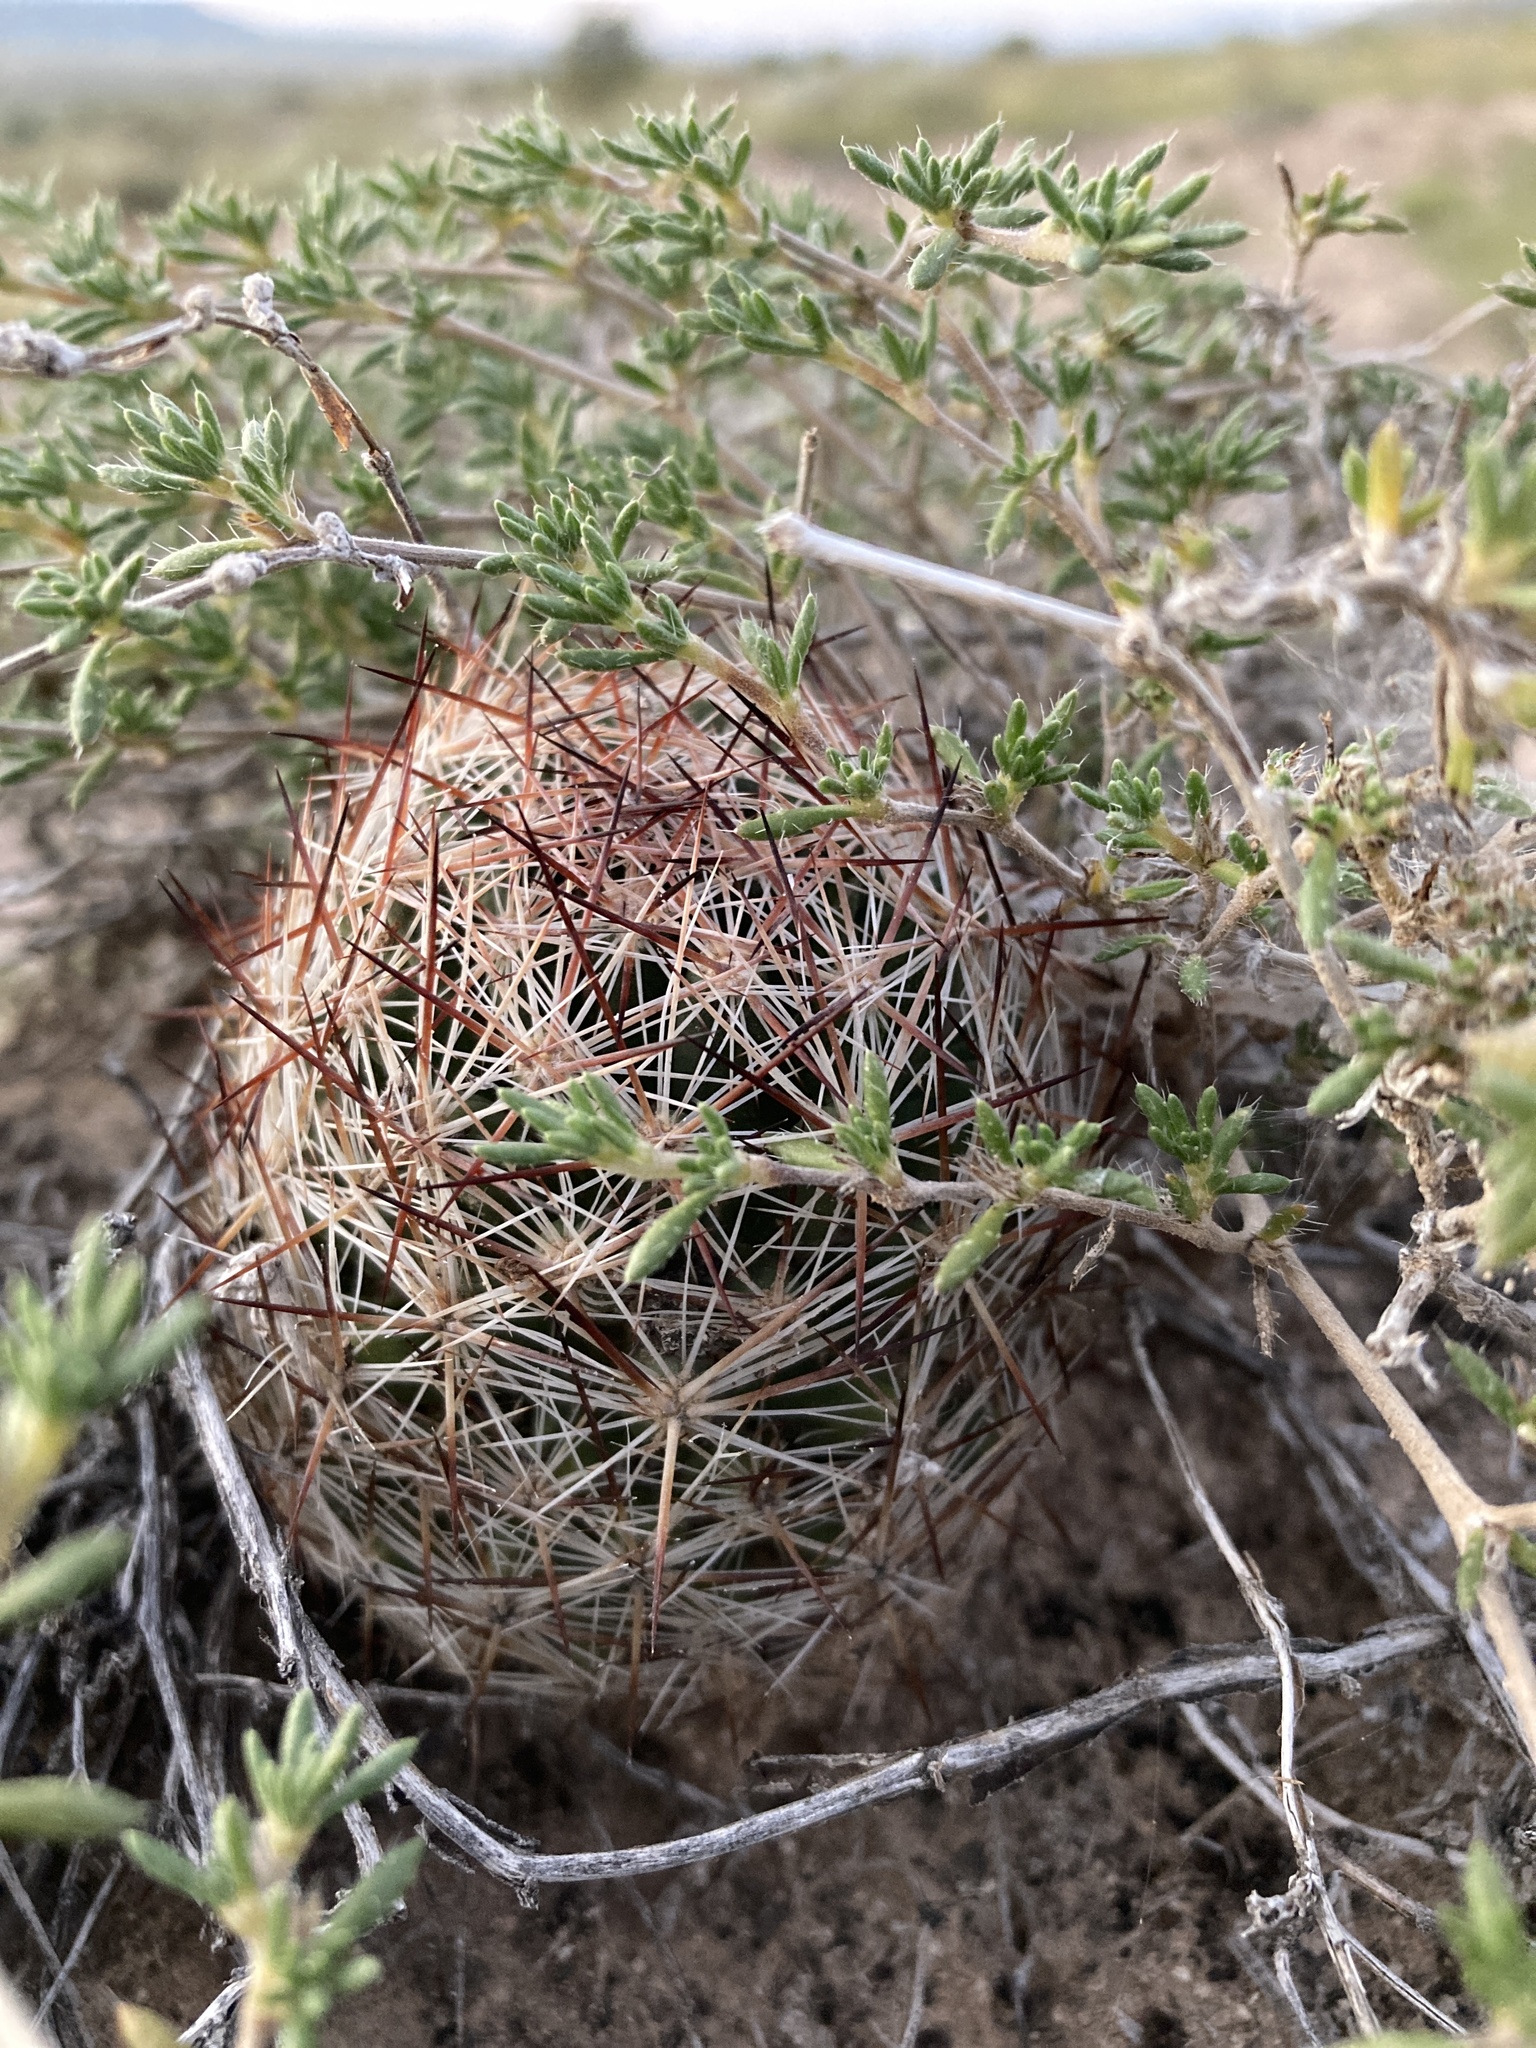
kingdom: Plantae
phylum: Tracheophyta
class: Magnoliopsida
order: Caryophyllales
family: Cactaceae
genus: Pelecyphora
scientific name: Pelecyphora vivipara
